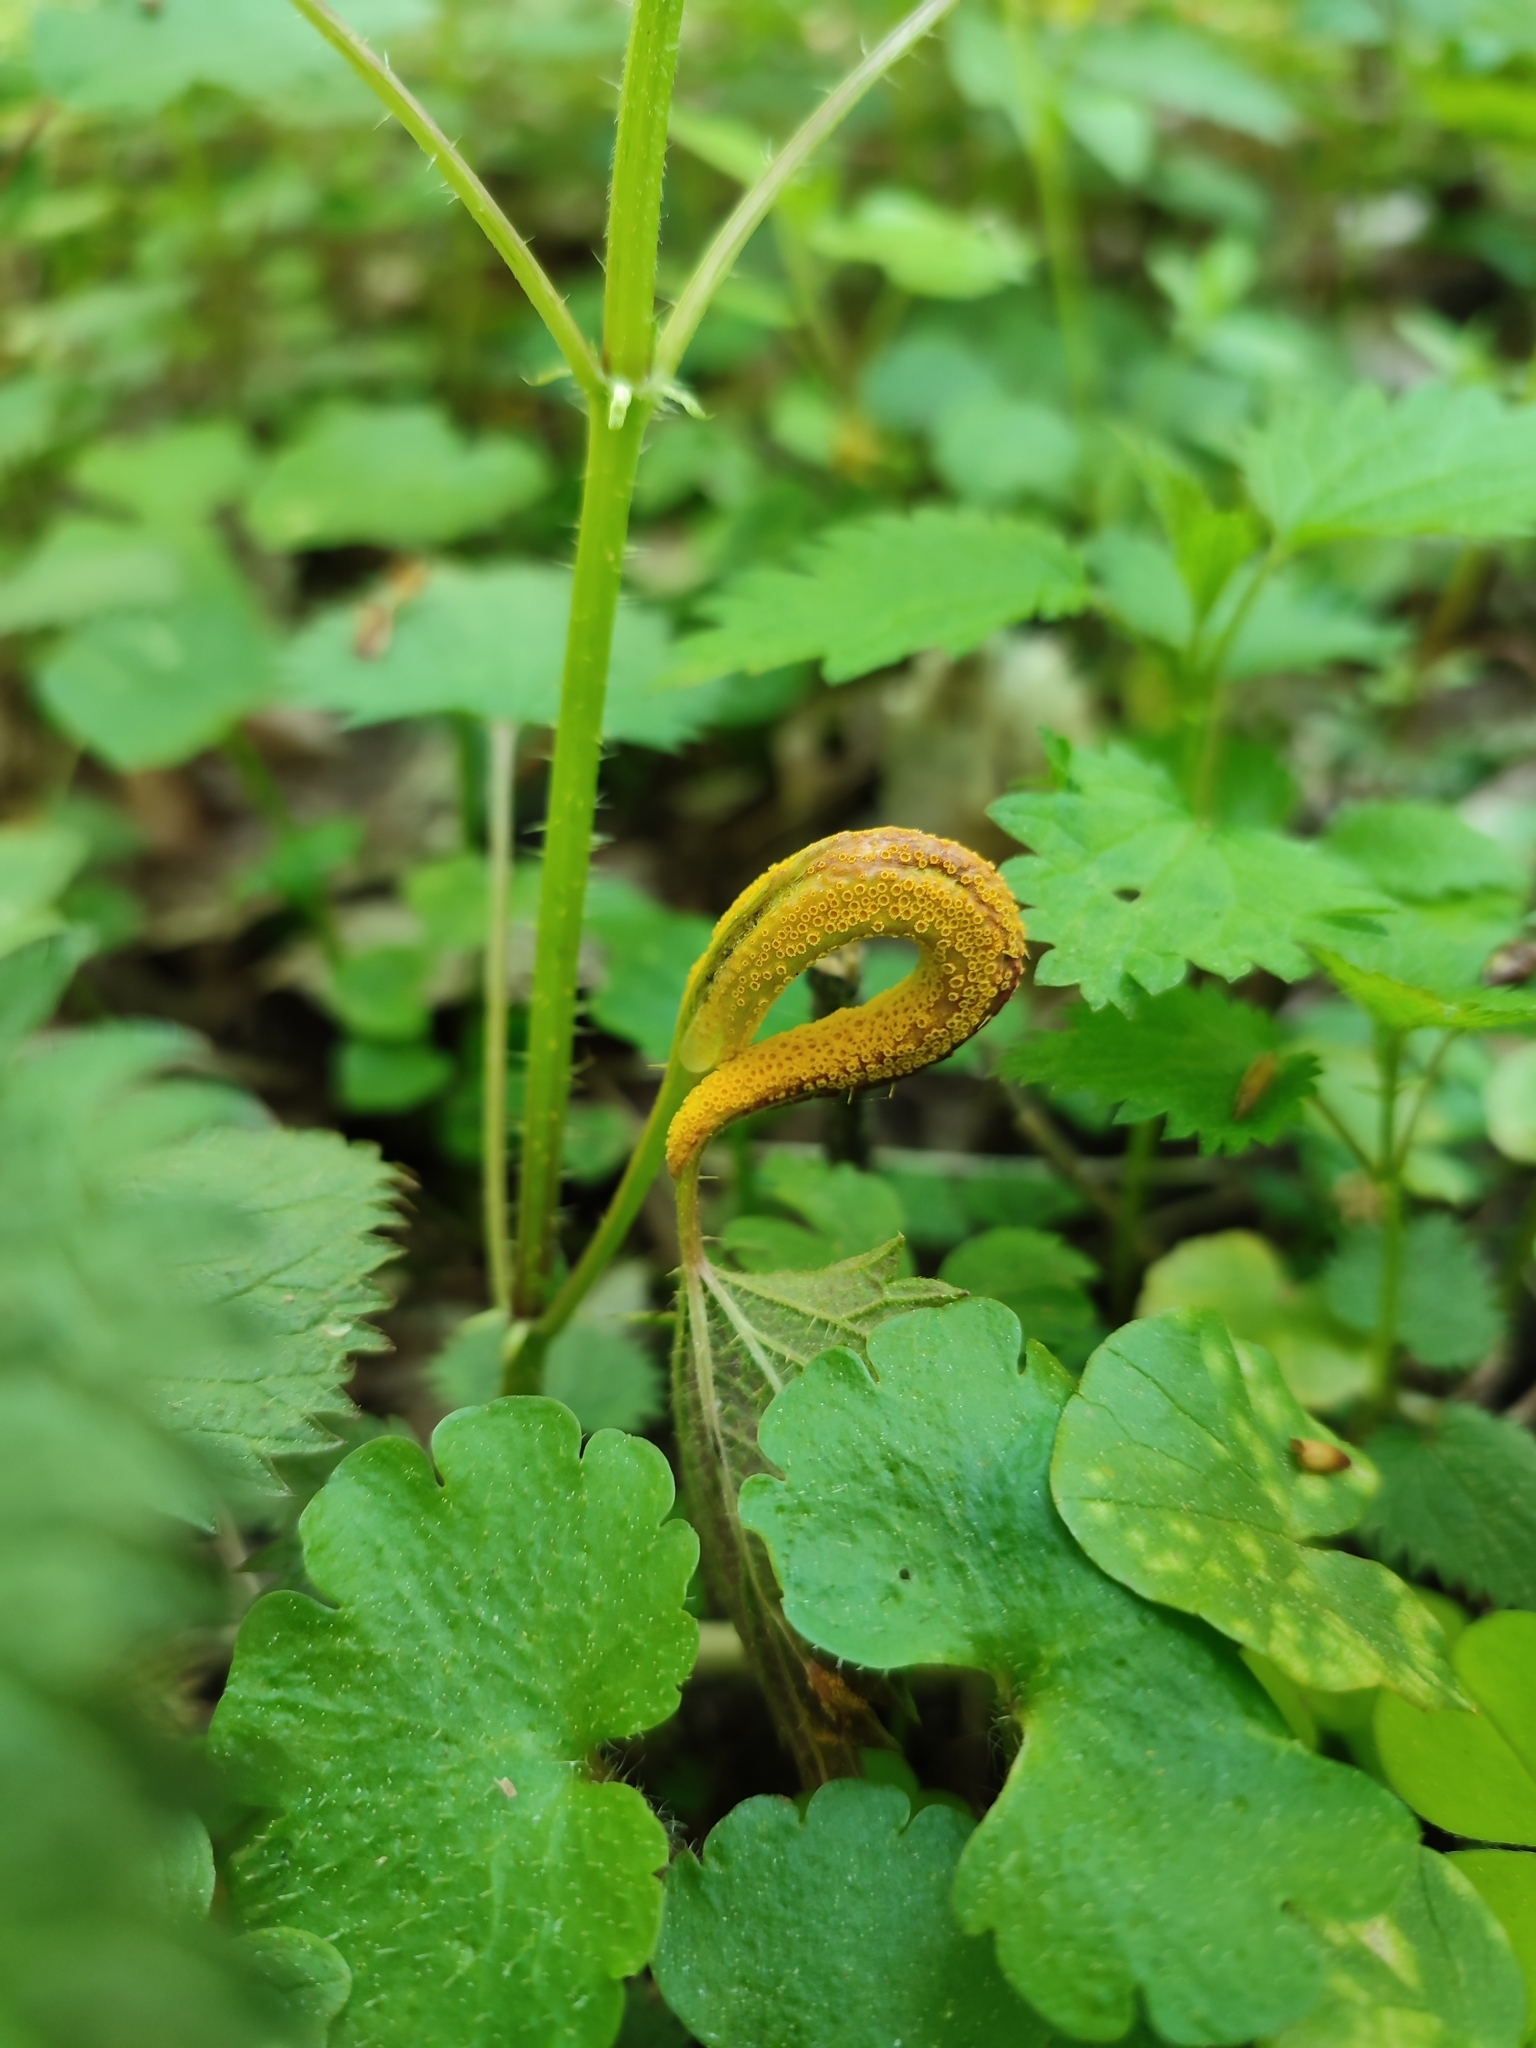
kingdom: Fungi
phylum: Basidiomycota
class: Pucciniomycetes
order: Pucciniales
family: Pucciniaceae
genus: Puccinia
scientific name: Puccinia urticata
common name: Nettle clustercup rust fungus
